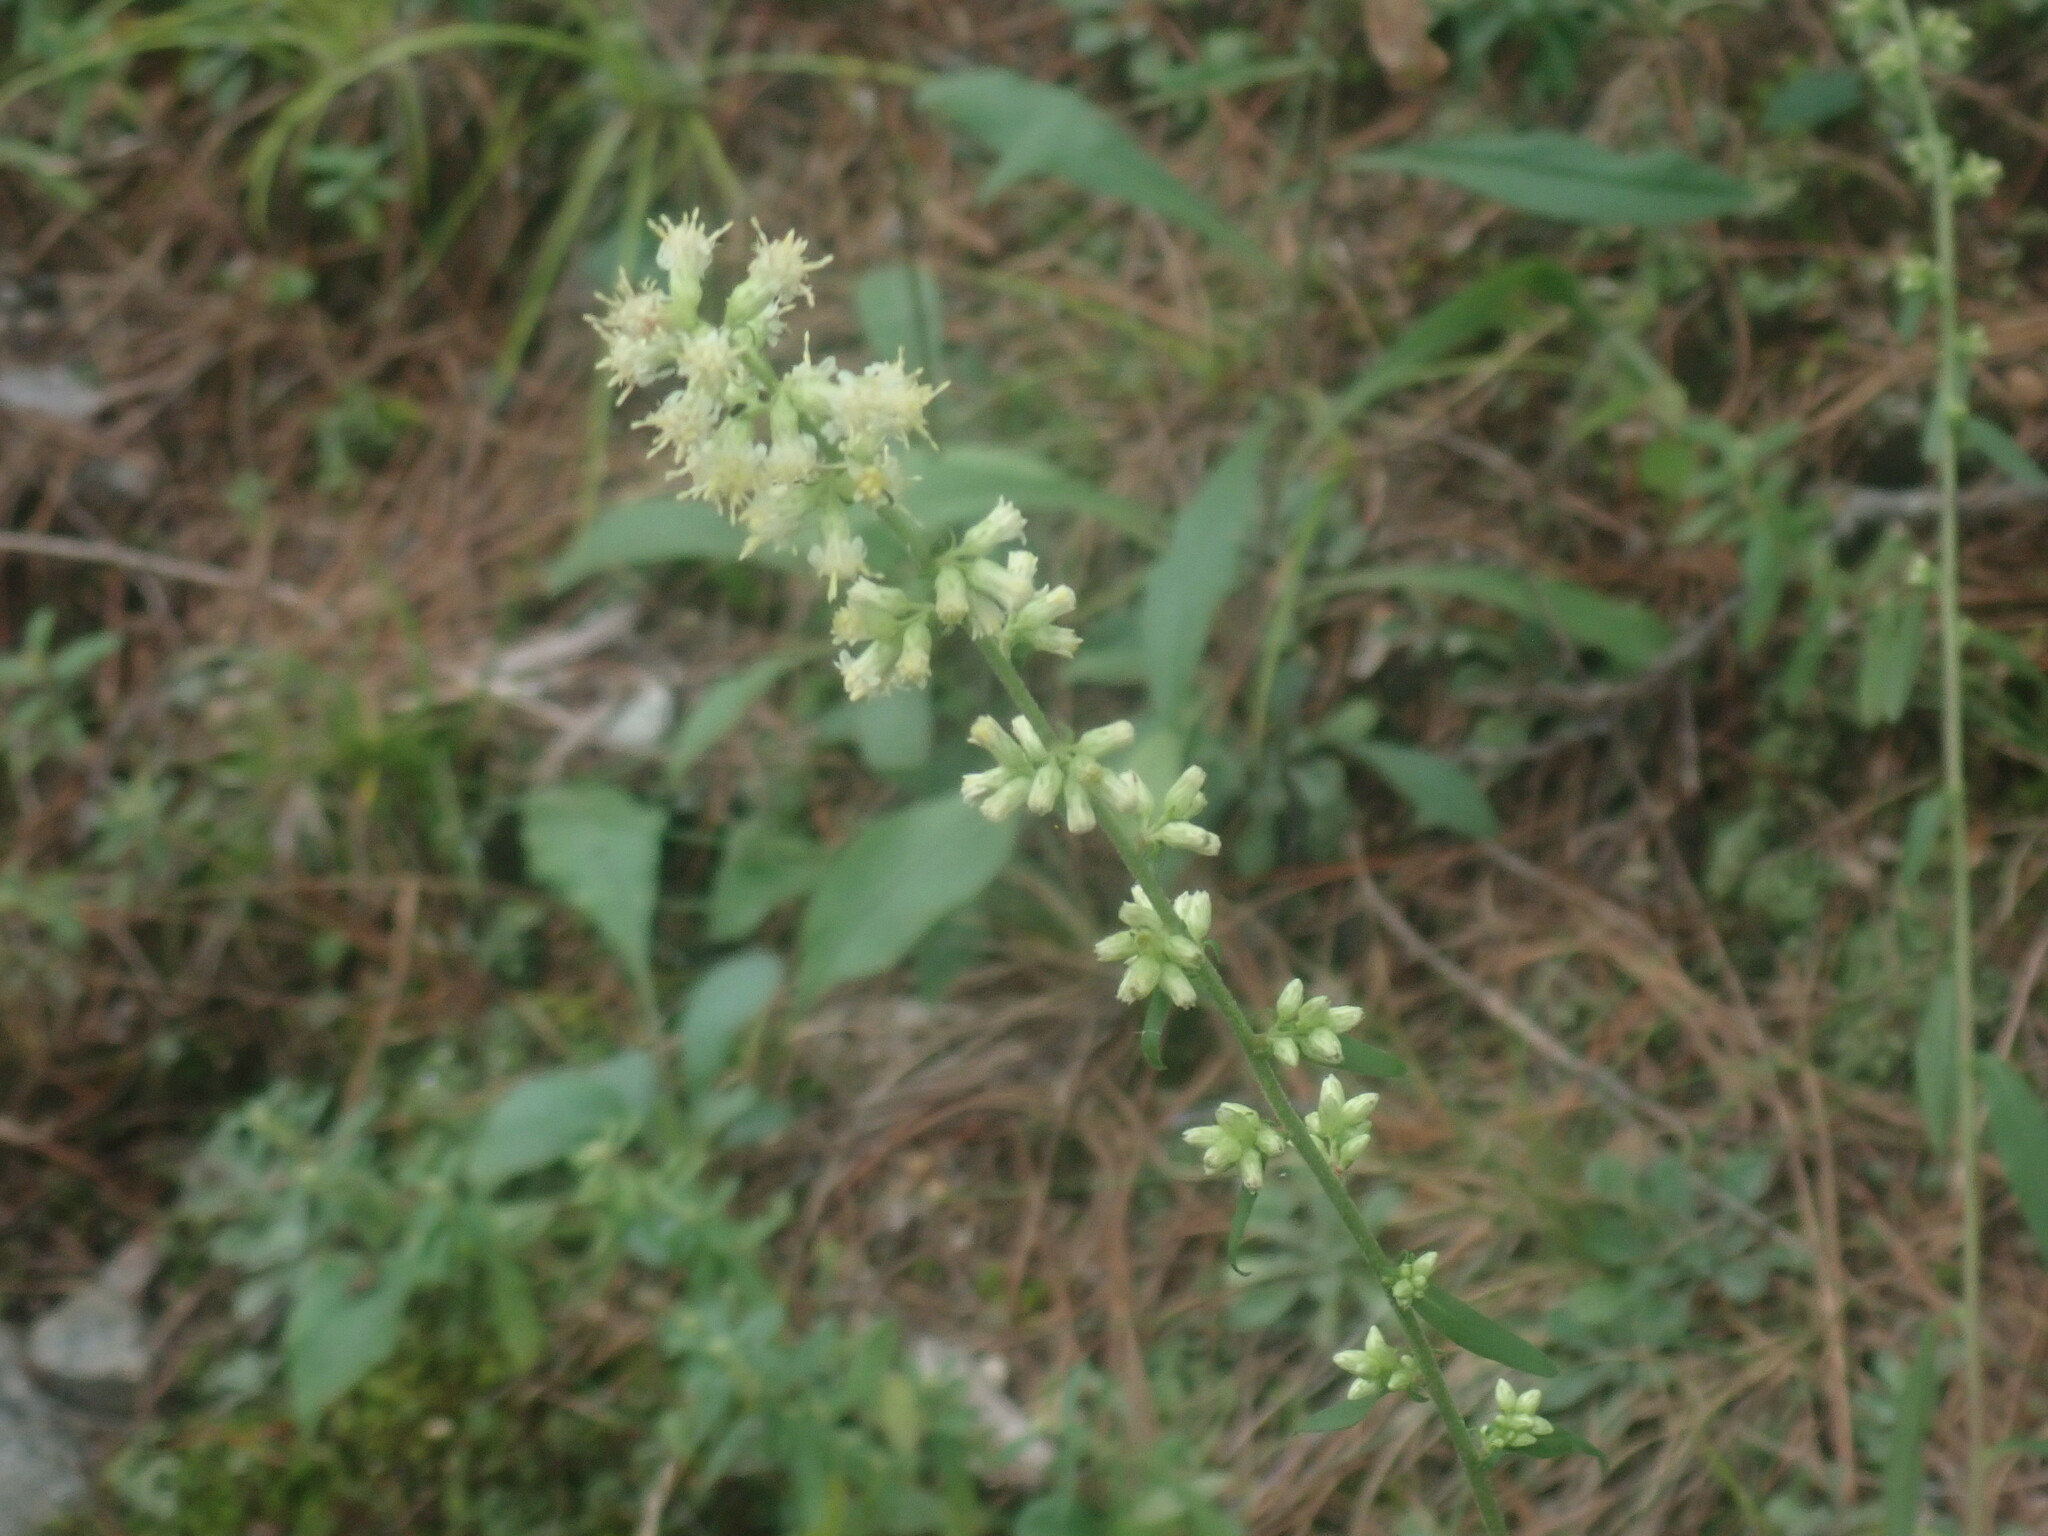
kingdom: Plantae
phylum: Tracheophyta
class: Magnoliopsida
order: Asterales
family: Asteraceae
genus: Solidago
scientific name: Solidago bicolor
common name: Silverrod
